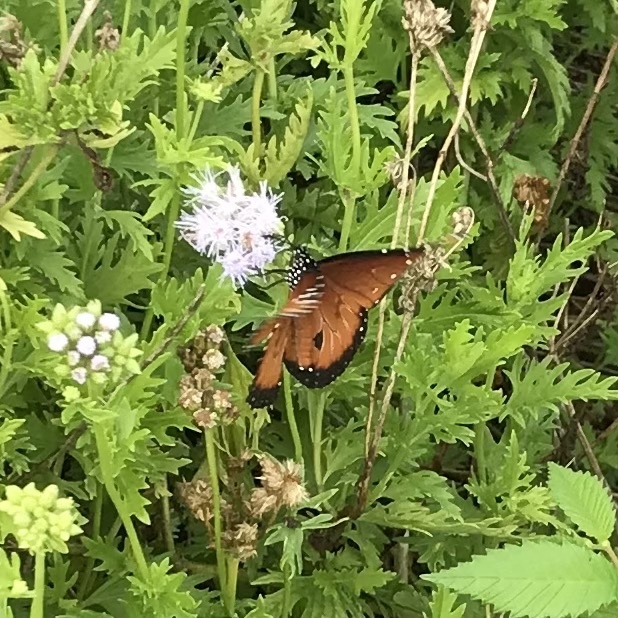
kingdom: Animalia
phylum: Arthropoda
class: Insecta
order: Lepidoptera
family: Nymphalidae
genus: Danaus
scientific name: Danaus gilippus
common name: Queen
